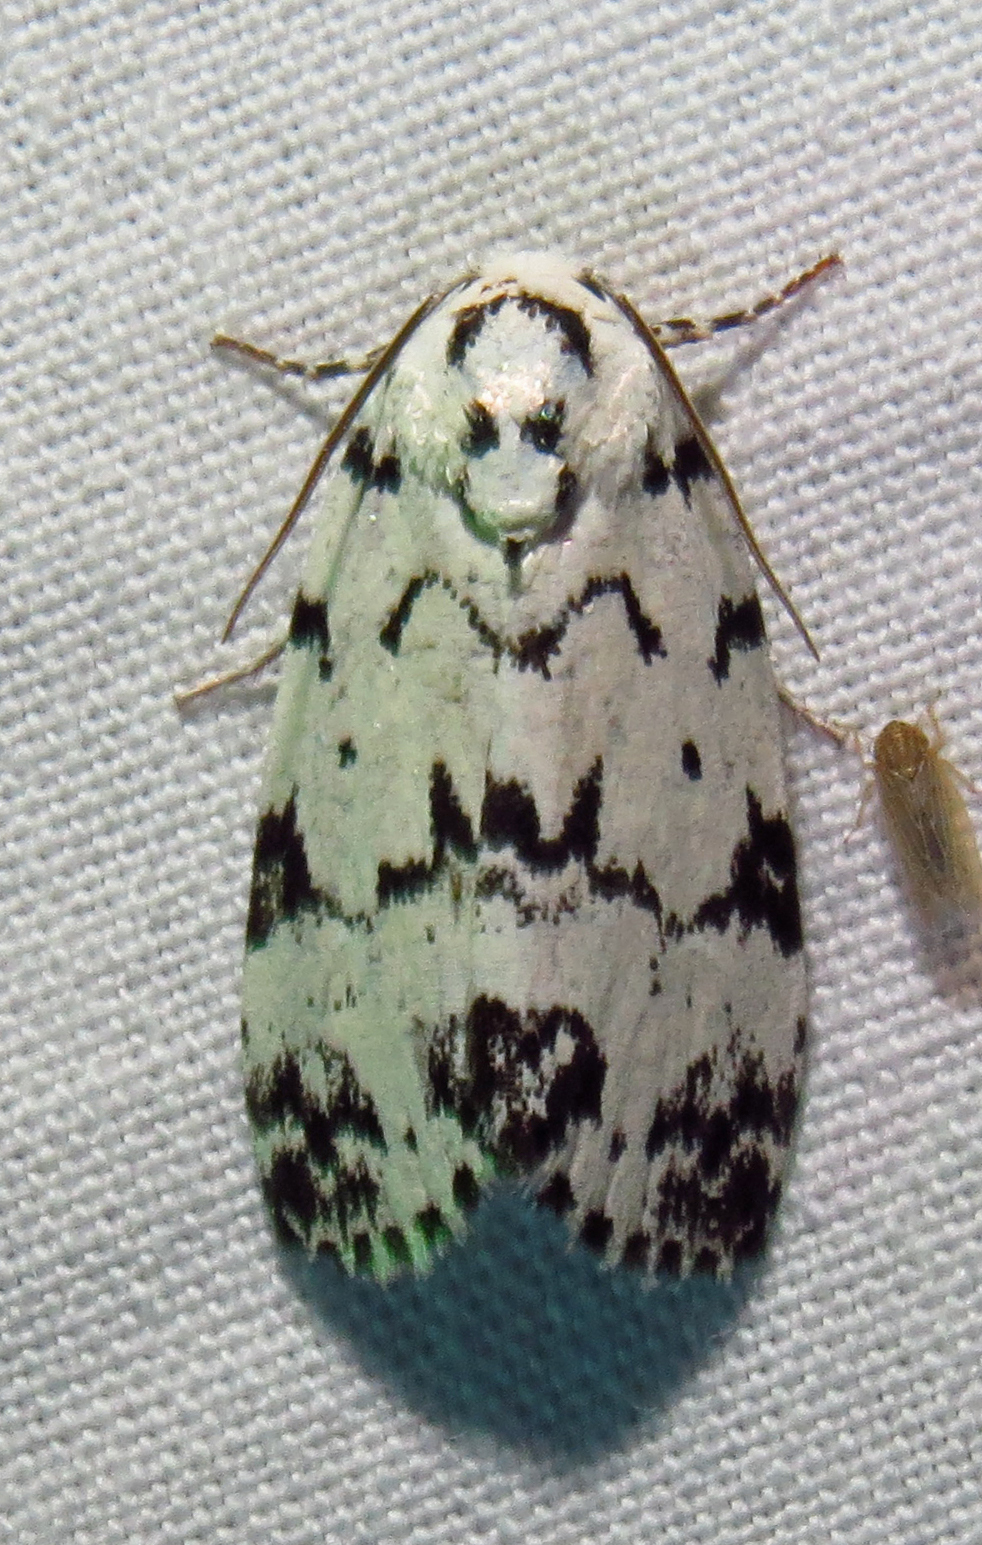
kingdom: Animalia
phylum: Arthropoda
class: Insecta
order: Lepidoptera
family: Noctuidae
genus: Polygrammate
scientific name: Polygrammate hebraeicum
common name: Hebrew moth
